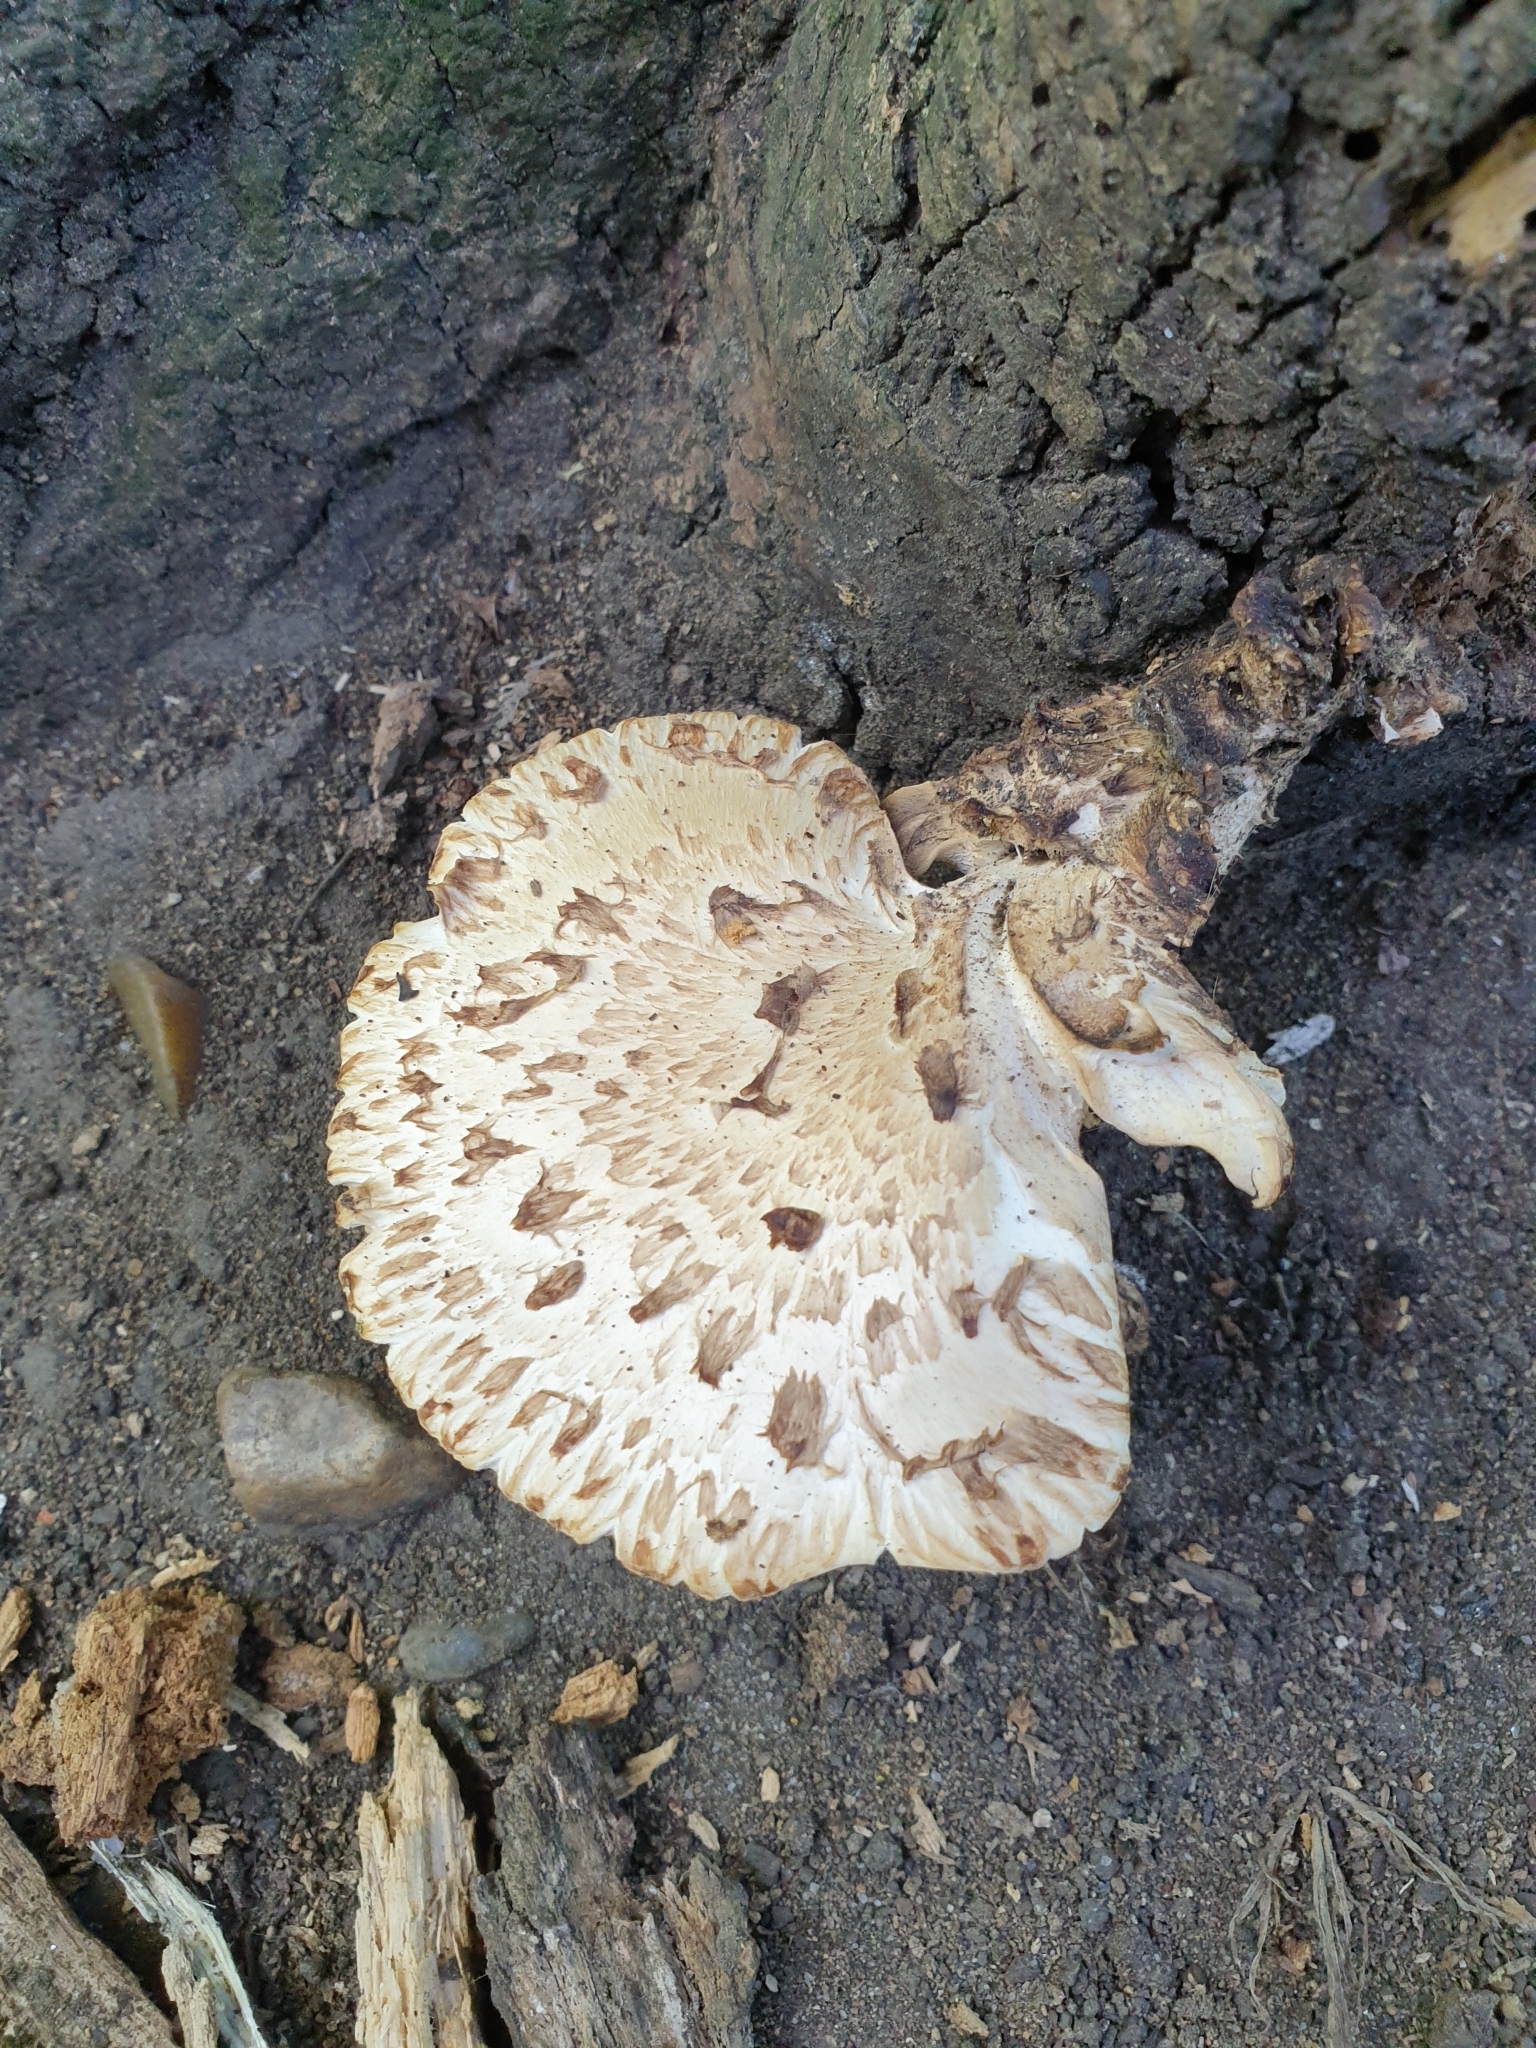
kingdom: Fungi
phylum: Basidiomycota
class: Agaricomycetes
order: Polyporales
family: Polyporaceae
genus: Cerioporus
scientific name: Cerioporus squamosus
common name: Dryad's saddle
